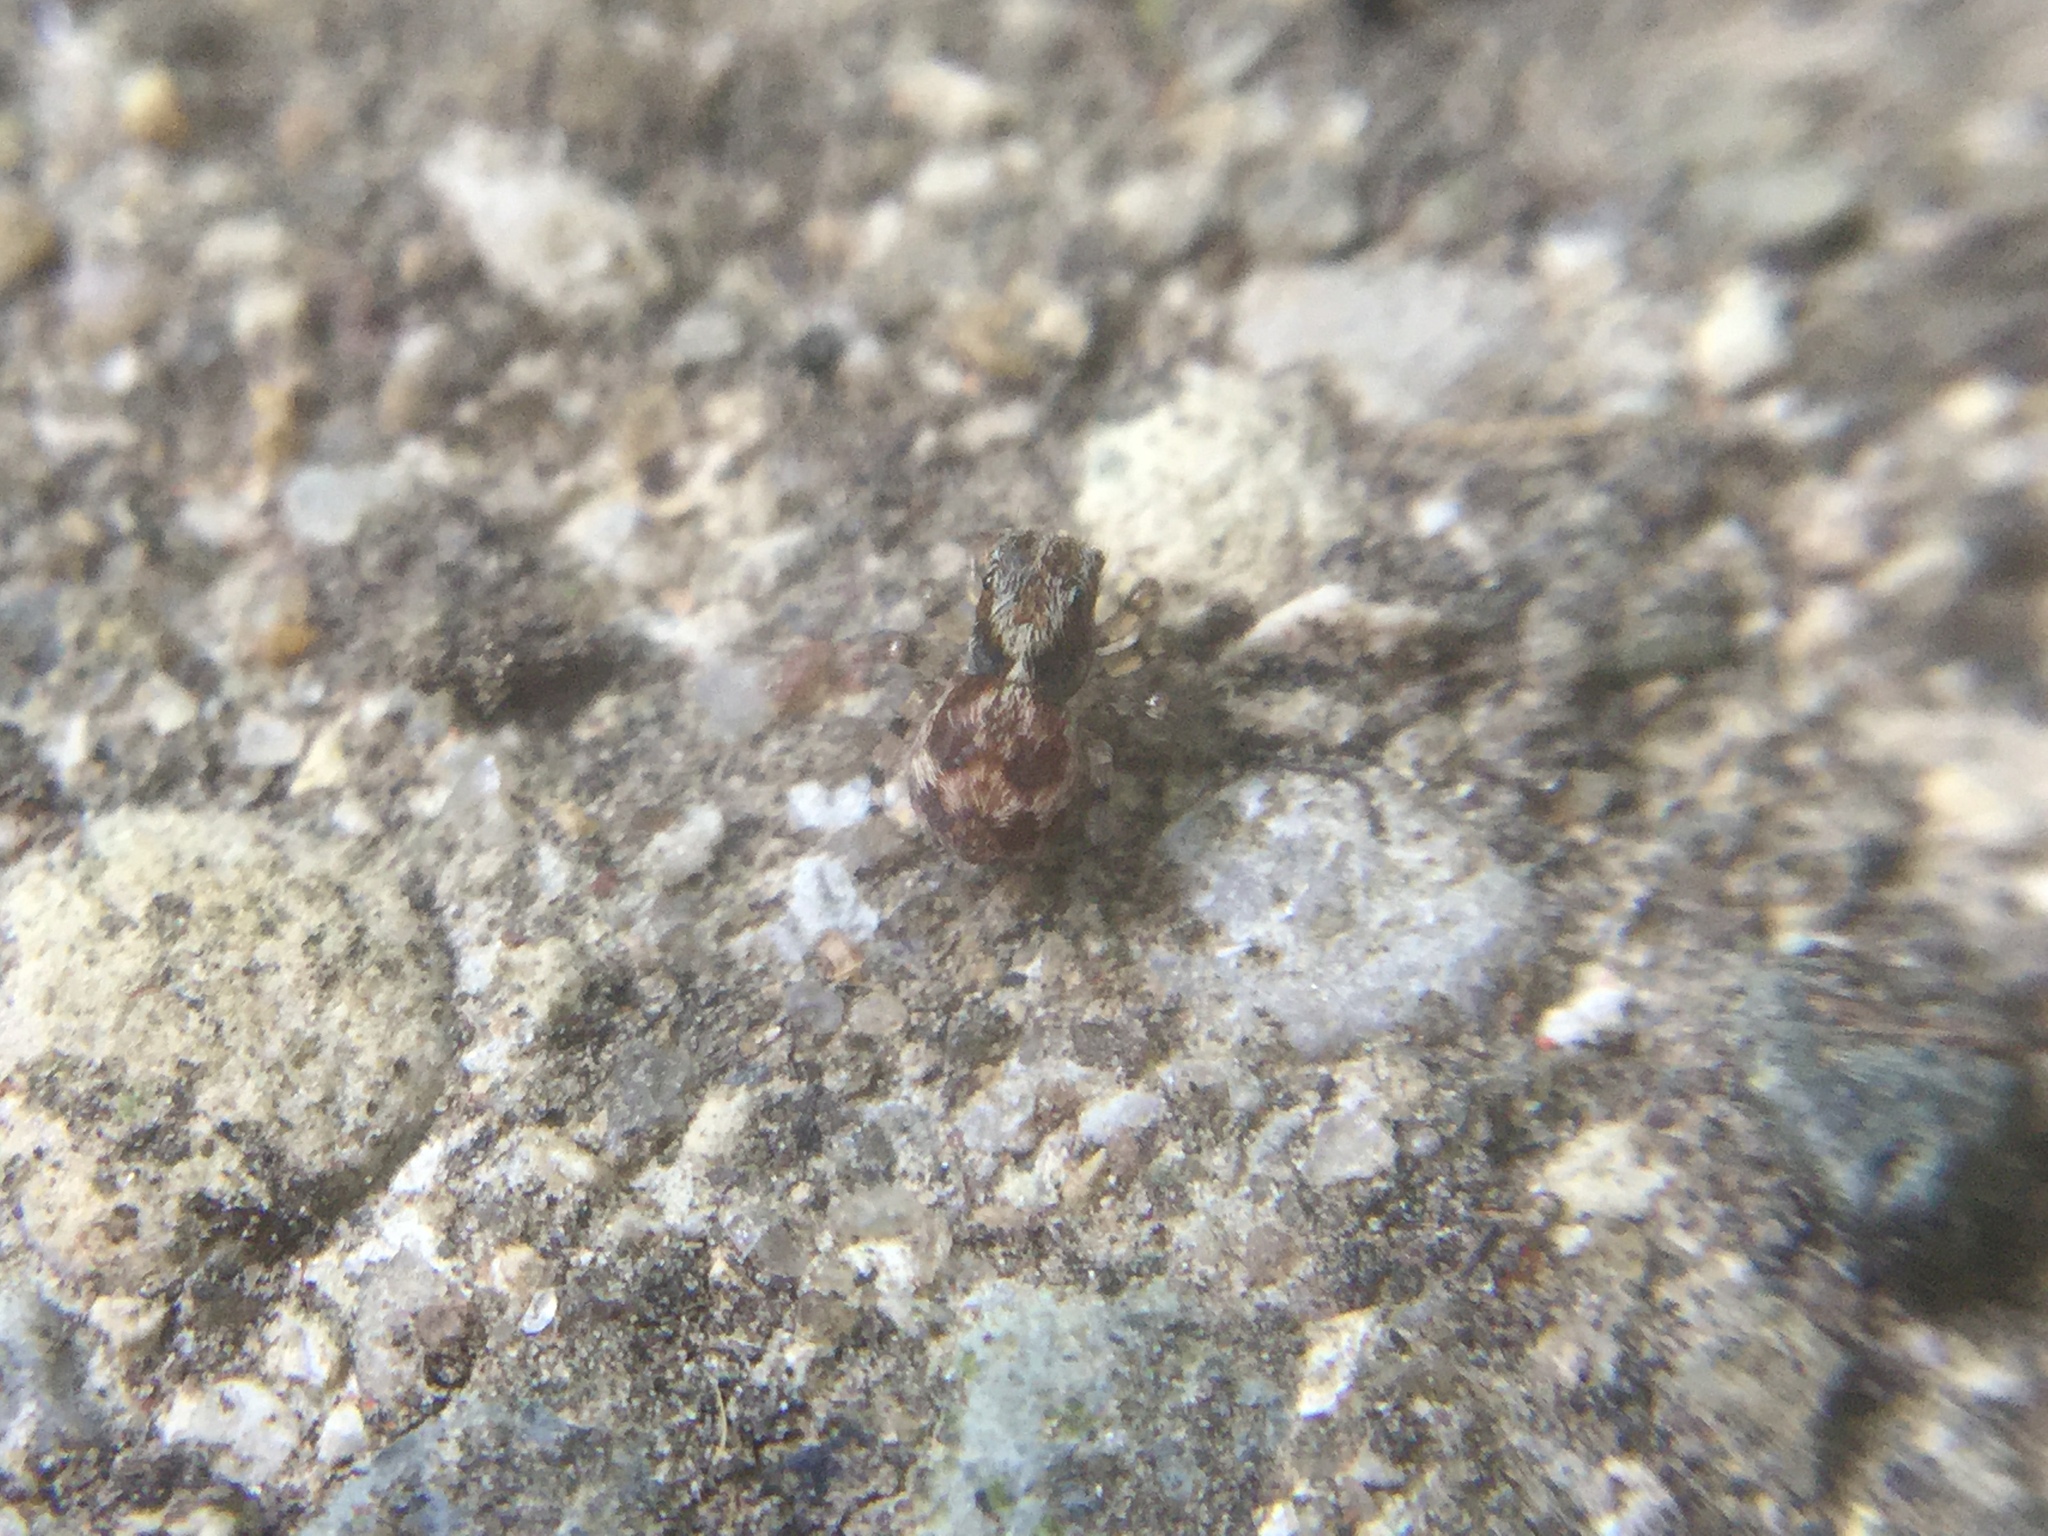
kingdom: Animalia
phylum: Arthropoda
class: Arachnida
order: Araneae
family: Salticidae
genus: Naphrys
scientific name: Naphrys pulex
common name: Flea jumping spider
